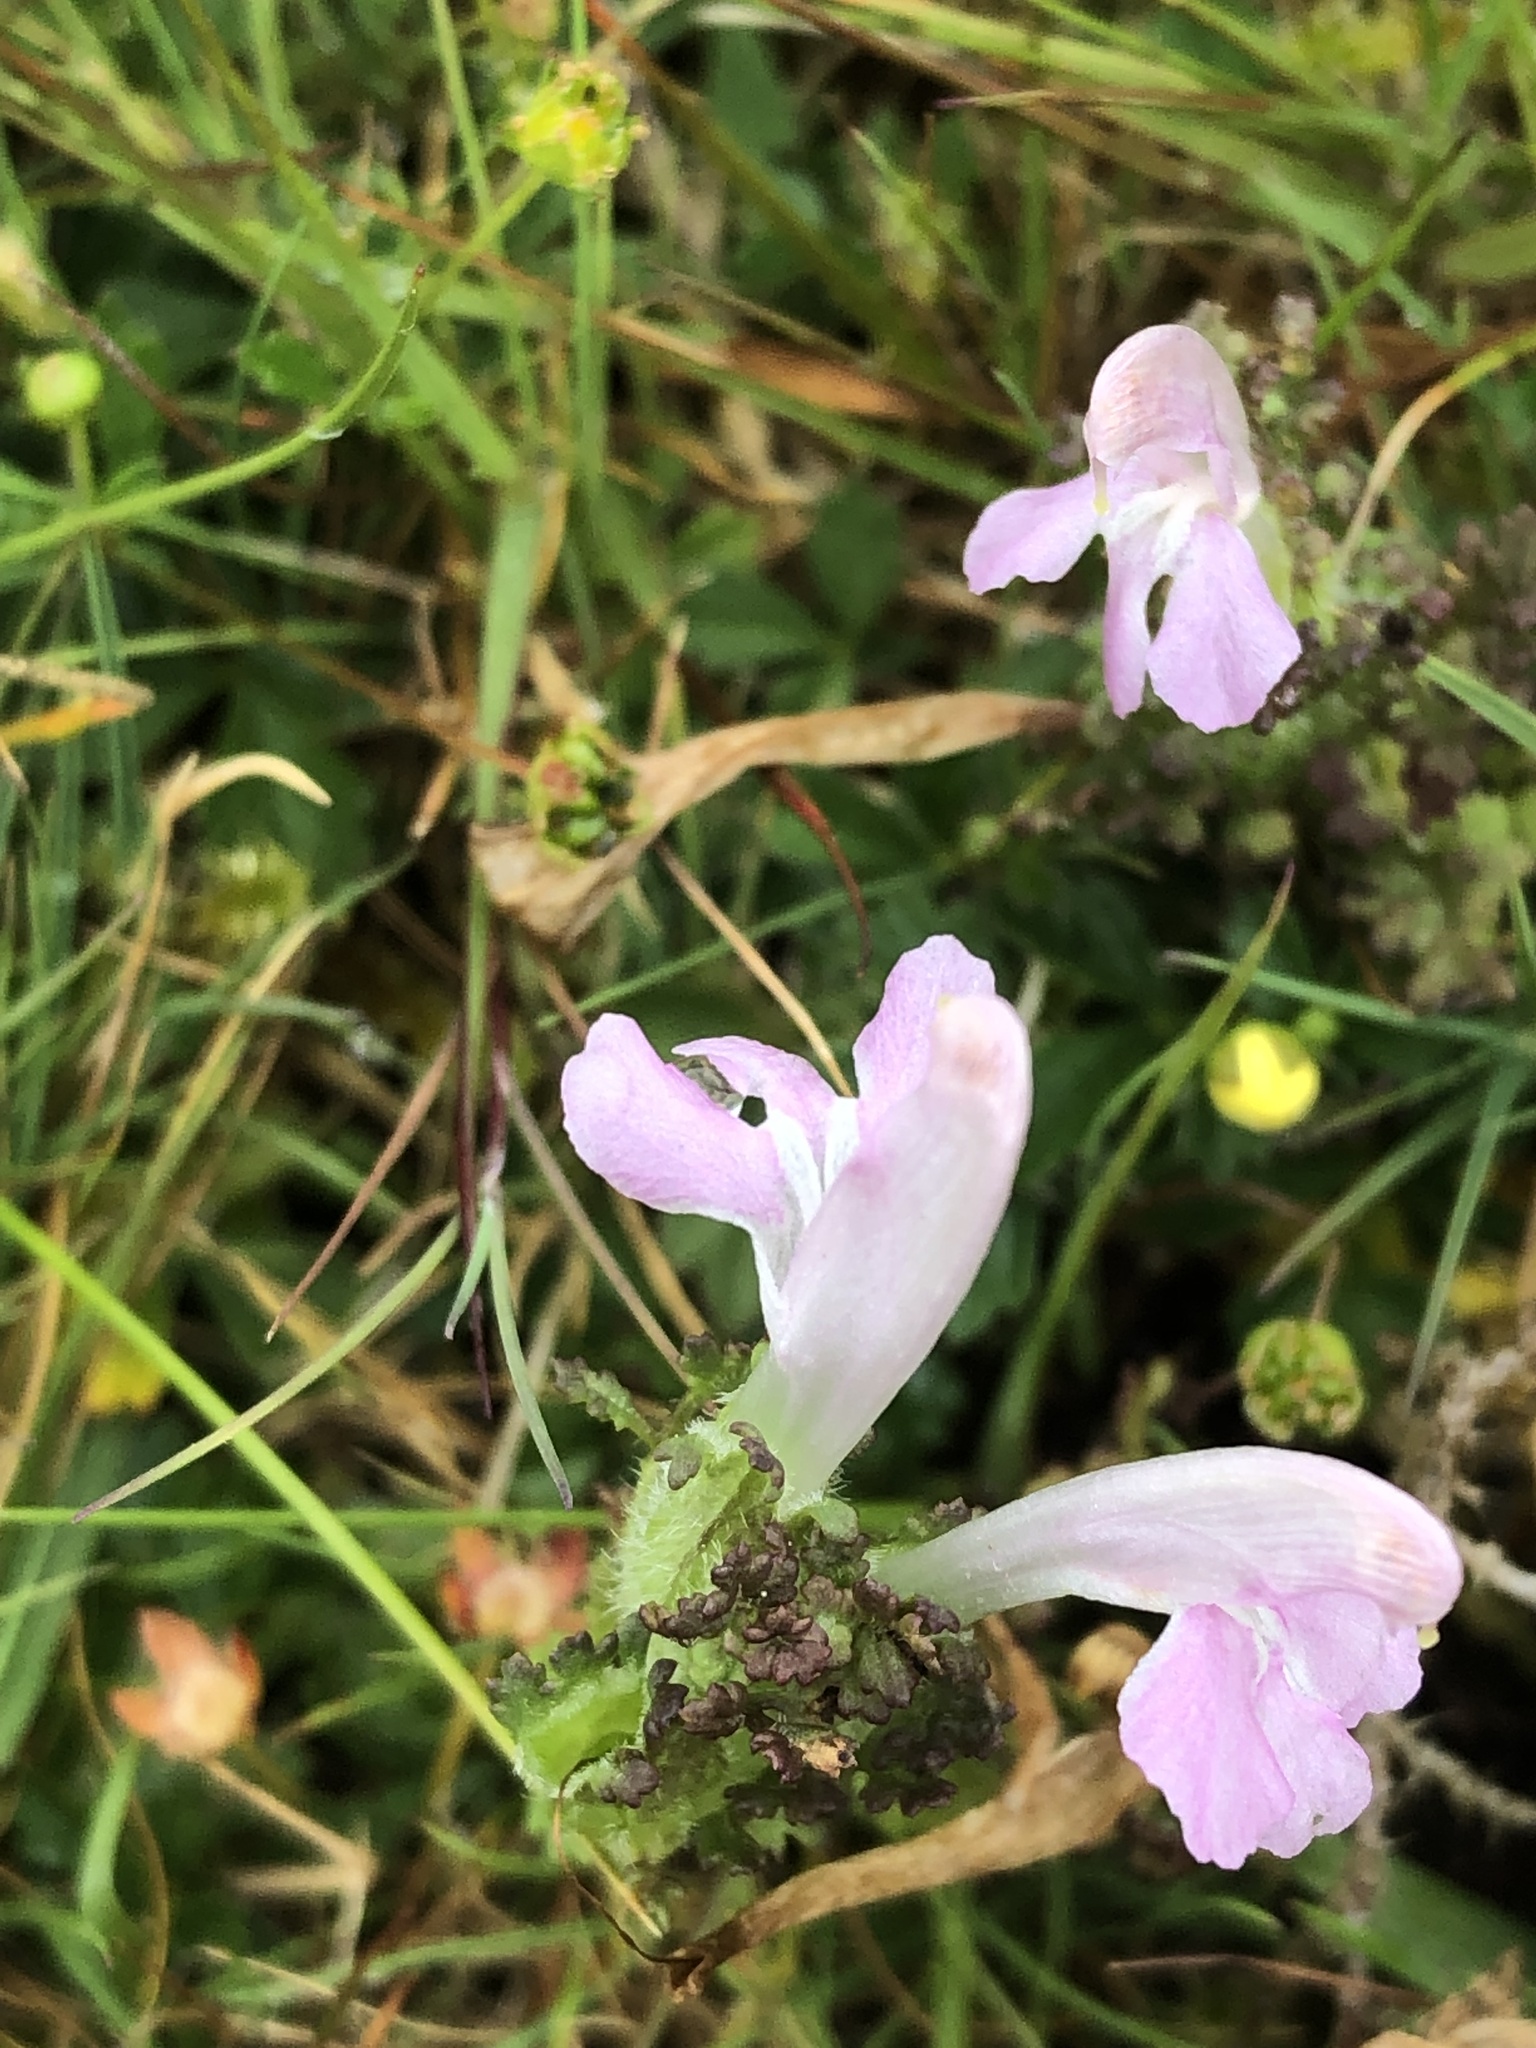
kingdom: Plantae
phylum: Tracheophyta
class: Magnoliopsida
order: Lamiales
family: Orobanchaceae
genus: Pedicularis
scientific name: Pedicularis sylvatica
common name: Lousewort
